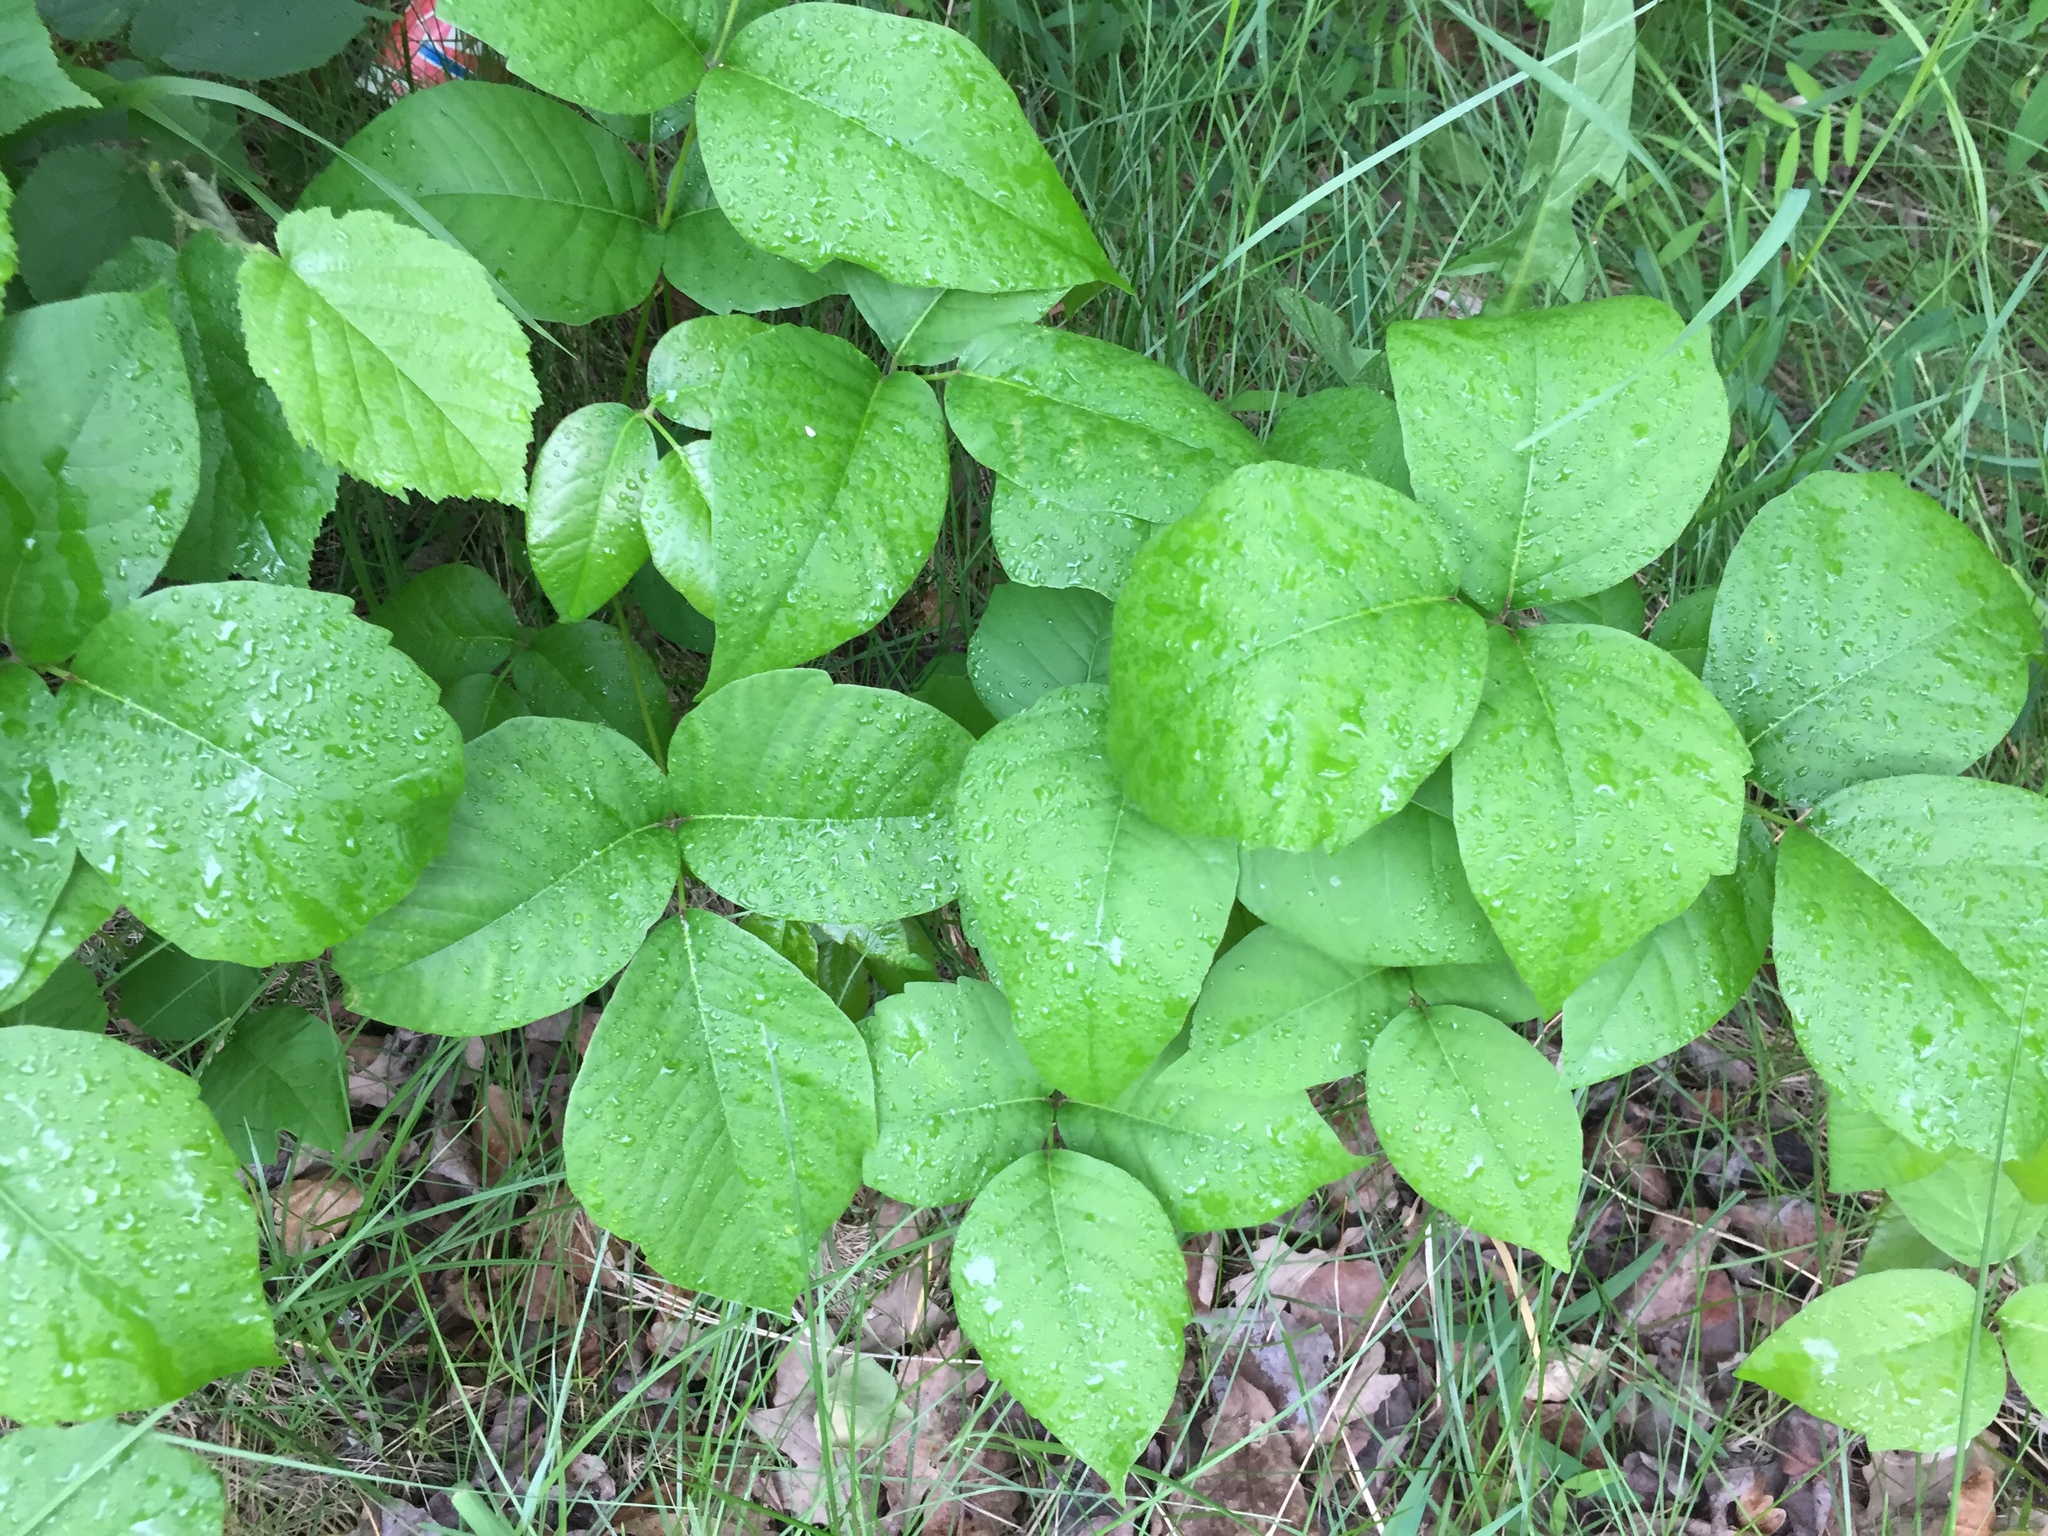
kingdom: Plantae
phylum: Tracheophyta
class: Magnoliopsida
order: Sapindales
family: Anacardiaceae
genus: Toxicodendron
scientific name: Toxicodendron rydbergii
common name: Rydberg's poison-ivy
